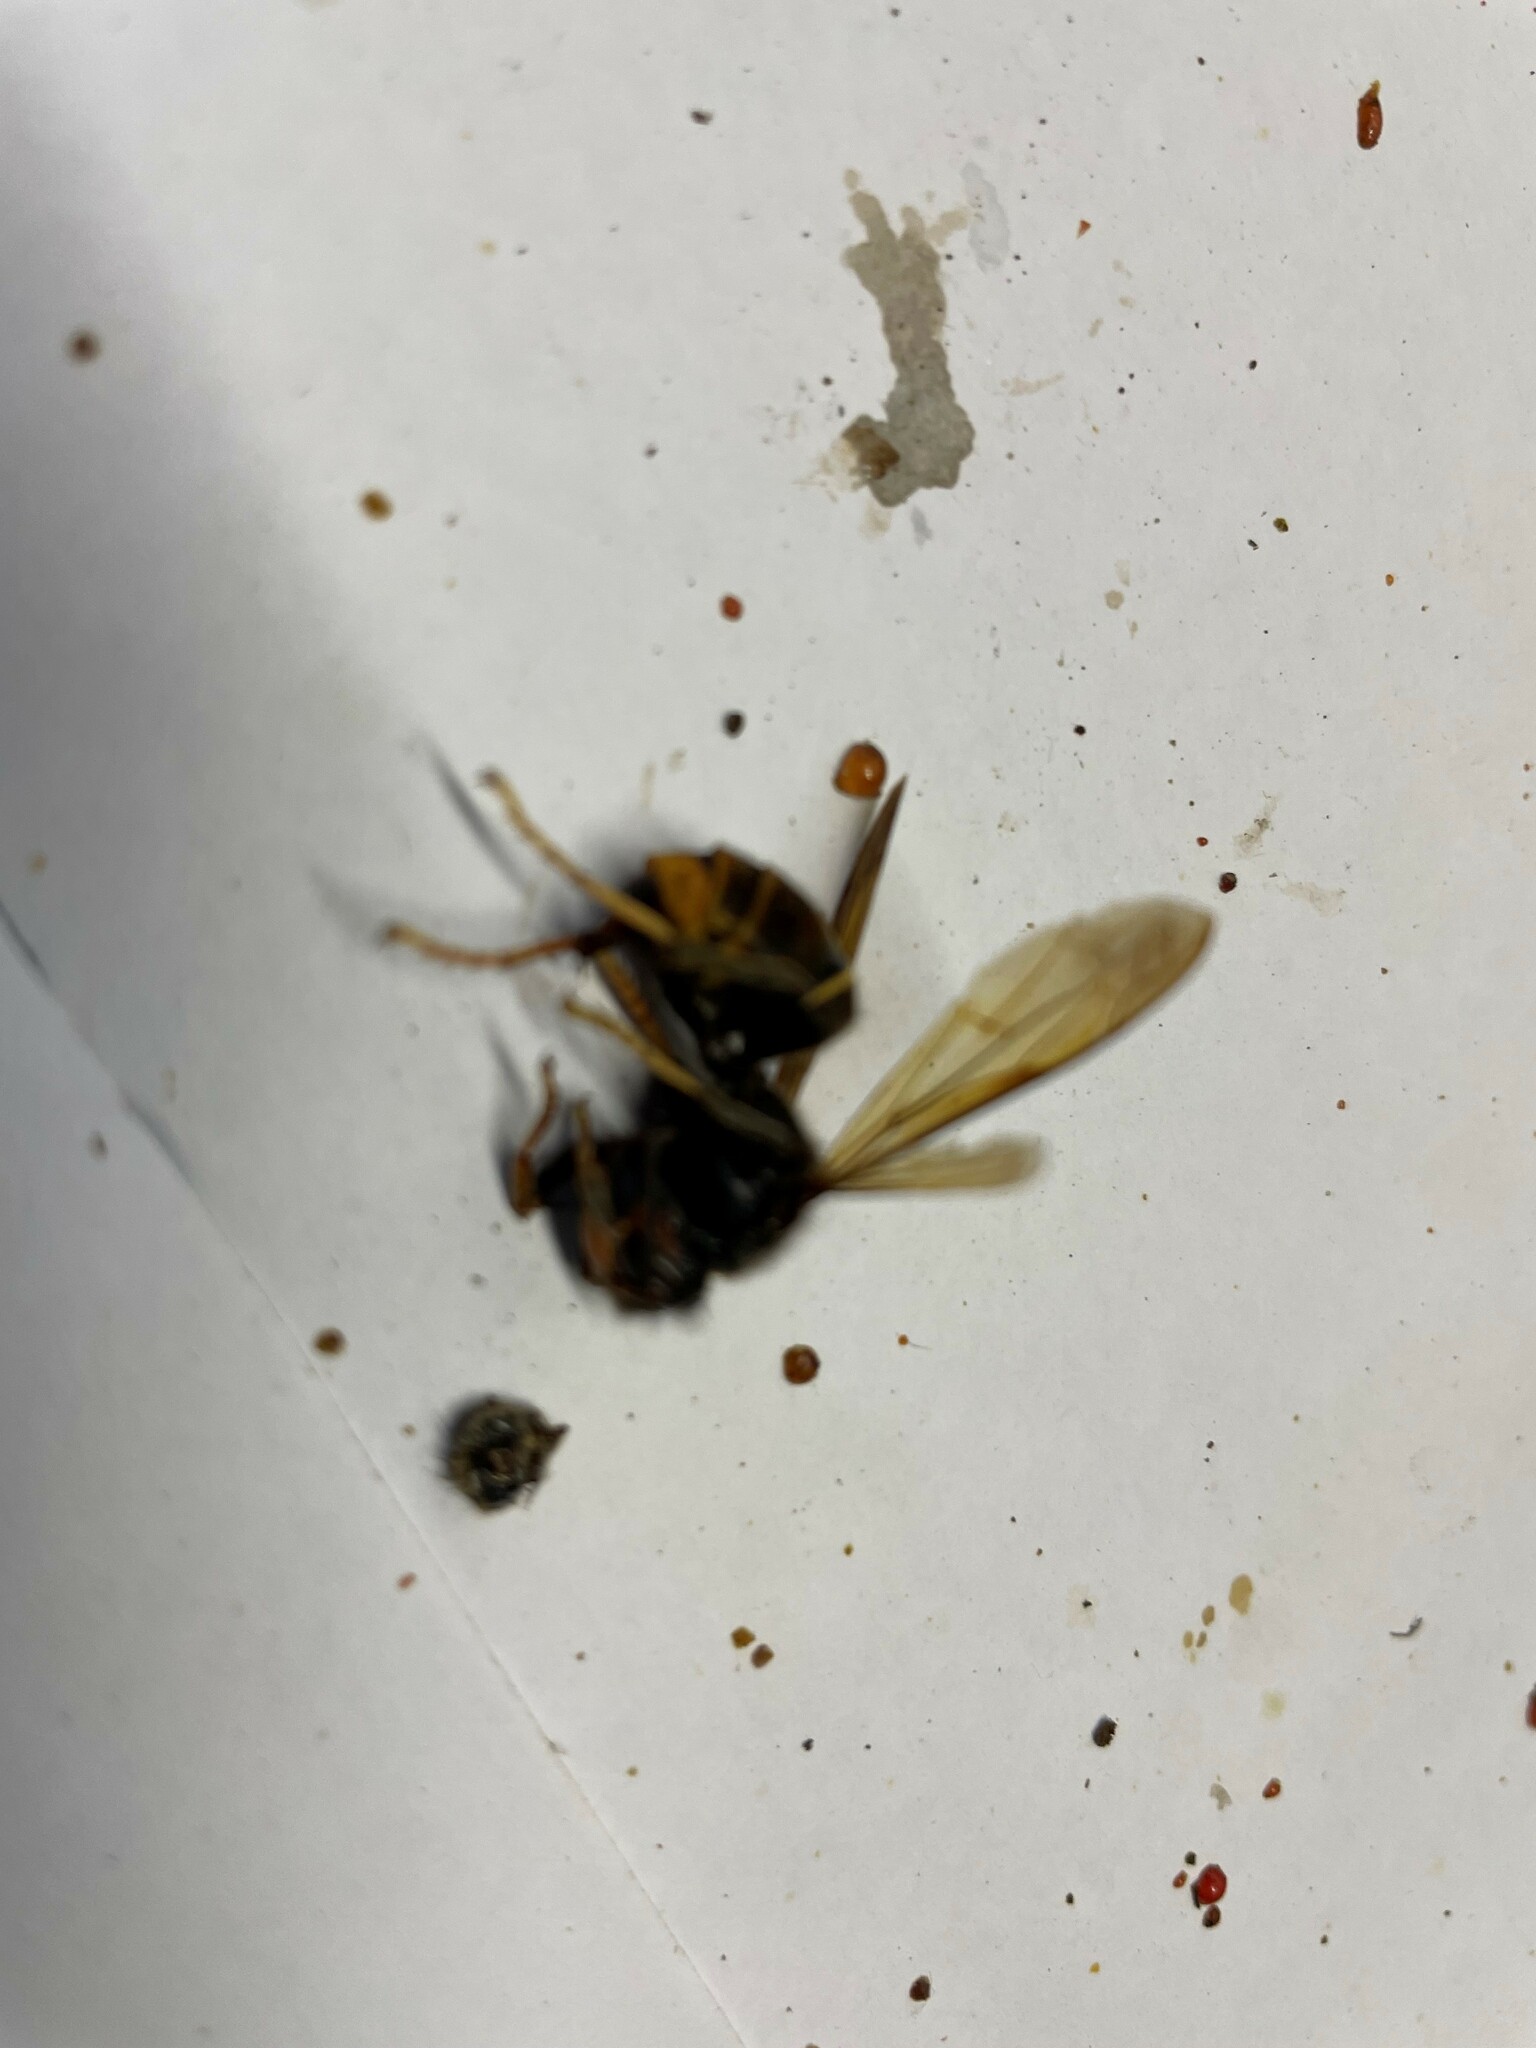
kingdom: Animalia
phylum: Arthropoda
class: Insecta
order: Hymenoptera
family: Vespidae
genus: Vespa
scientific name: Vespa velutina
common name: Asian hornet
